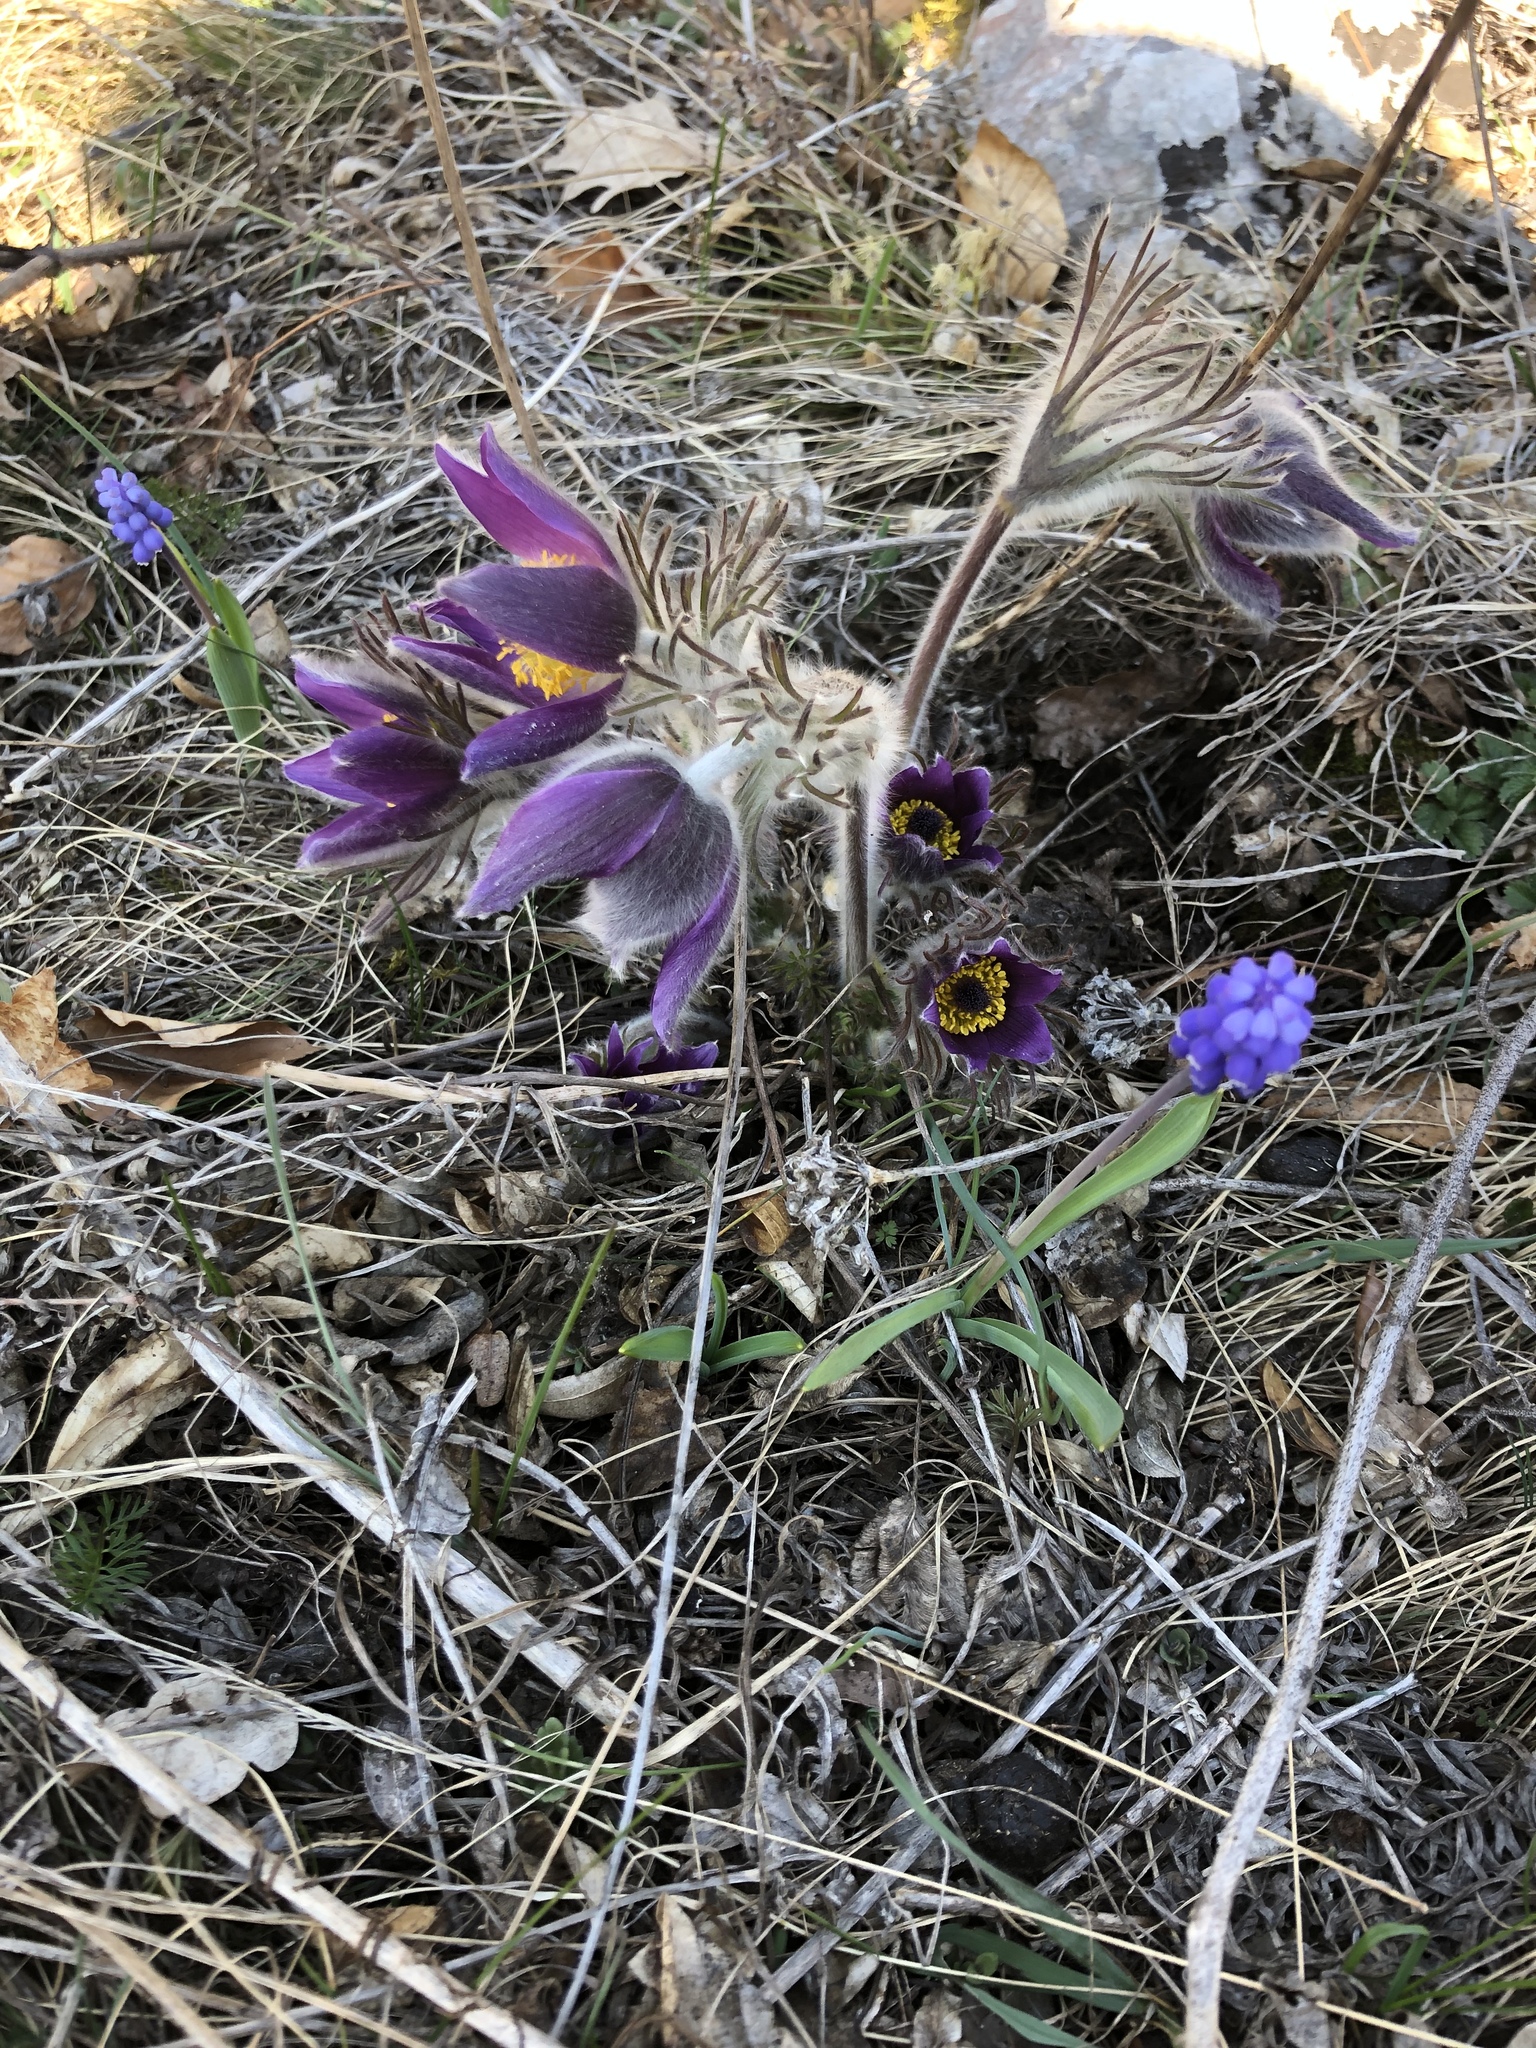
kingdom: Plantae
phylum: Tracheophyta
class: Magnoliopsida
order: Ranunculales
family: Ranunculaceae
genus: Pulsatilla
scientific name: Pulsatilla montana
